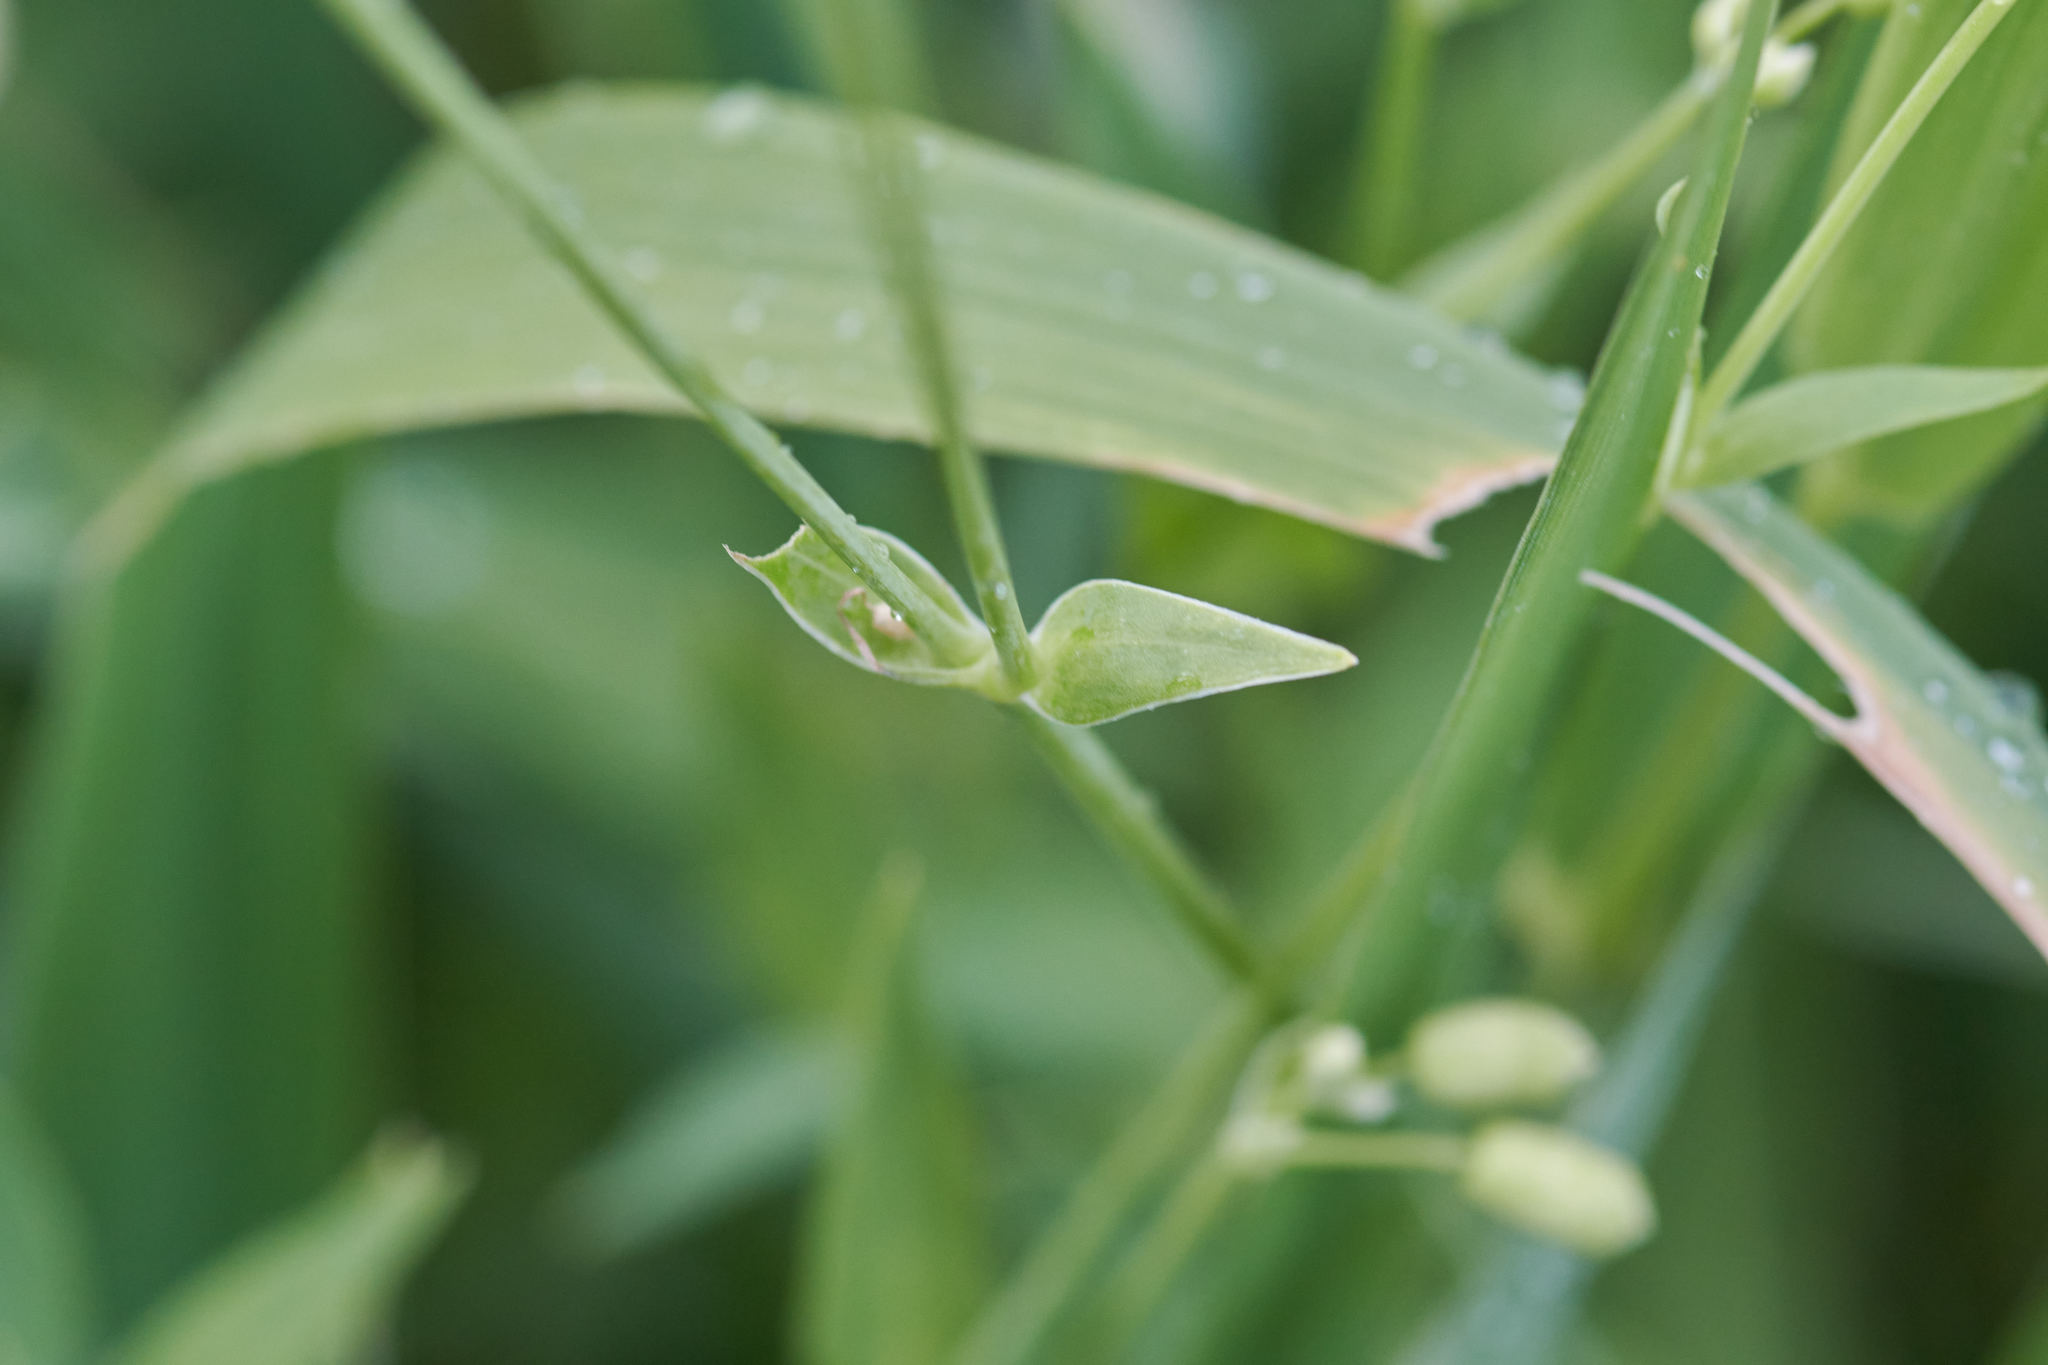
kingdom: Plantae
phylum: Tracheophyta
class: Magnoliopsida
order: Caryophyllales
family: Caryophyllaceae
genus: Silene
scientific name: Silene vulgaris
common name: Bladder campion
